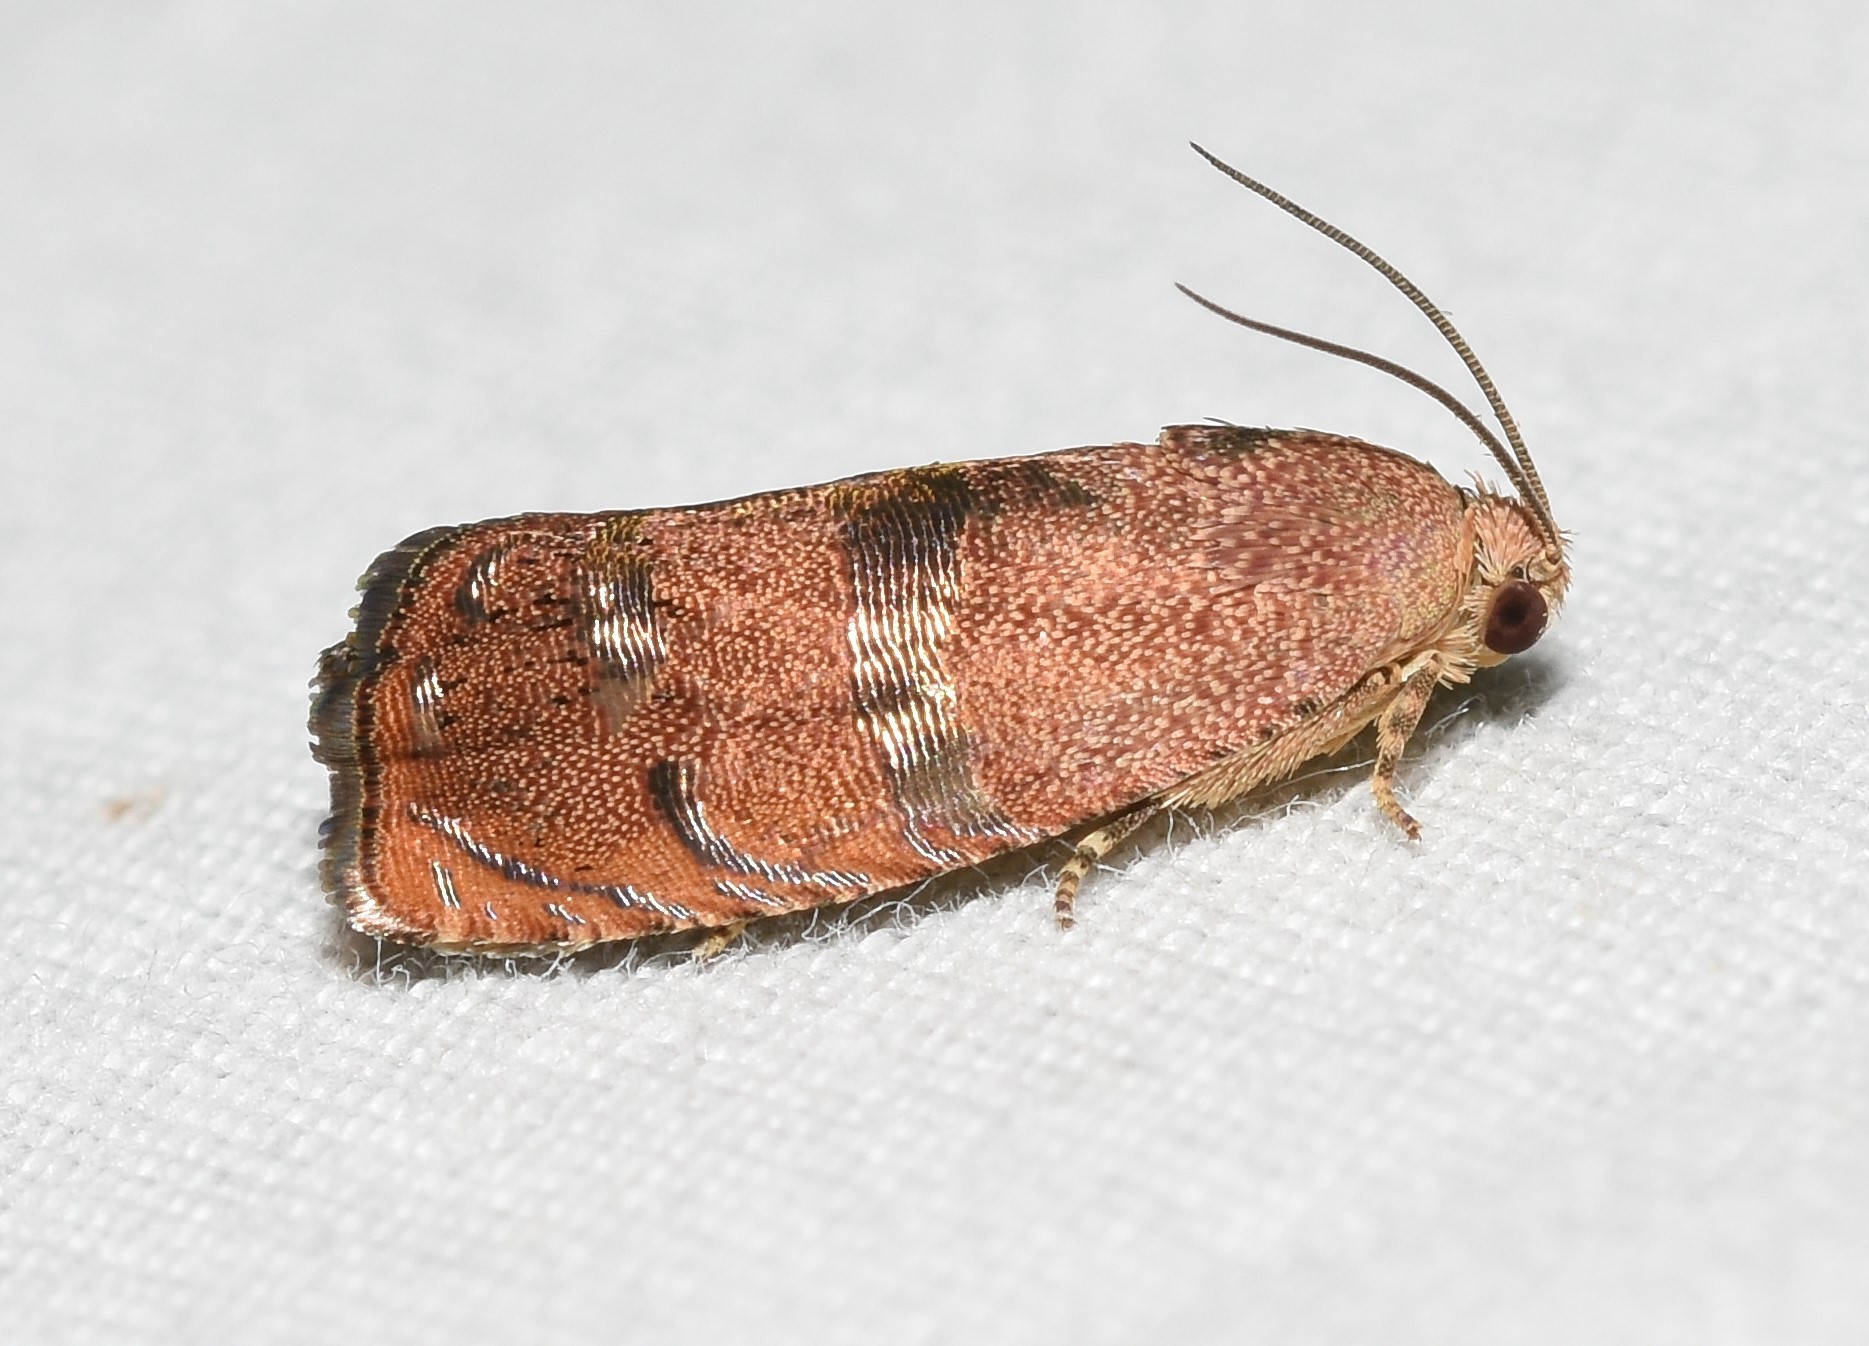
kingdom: Animalia
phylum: Arthropoda
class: Insecta
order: Lepidoptera
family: Tortricidae
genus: Cydia
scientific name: Cydia latiferreana
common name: Filbertworm moth
